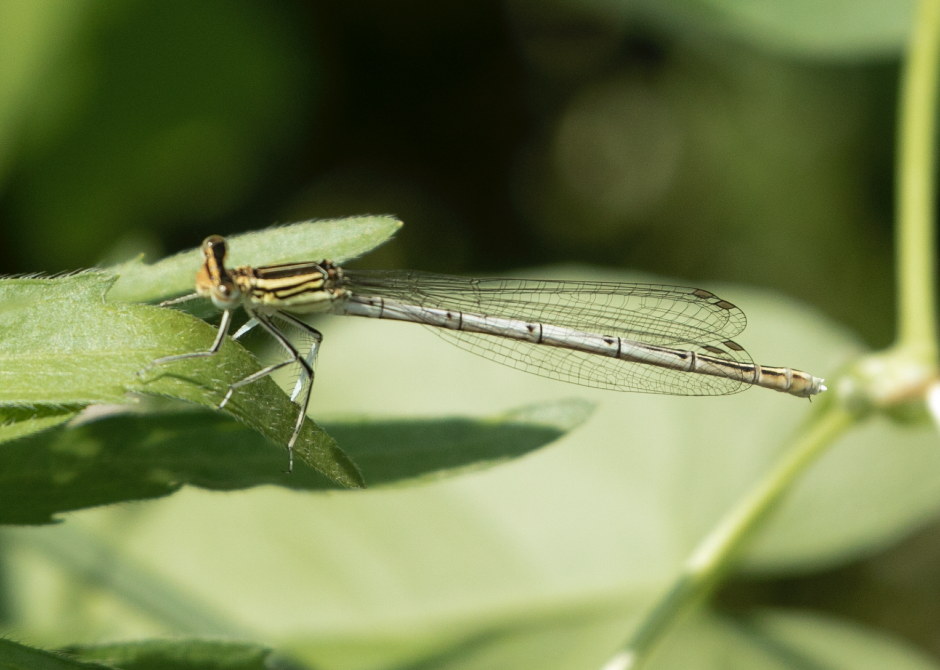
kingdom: Animalia
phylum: Arthropoda
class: Insecta
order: Odonata
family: Platycnemididae
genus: Platycnemis
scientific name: Platycnemis pennipes
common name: White-legged damselfly
